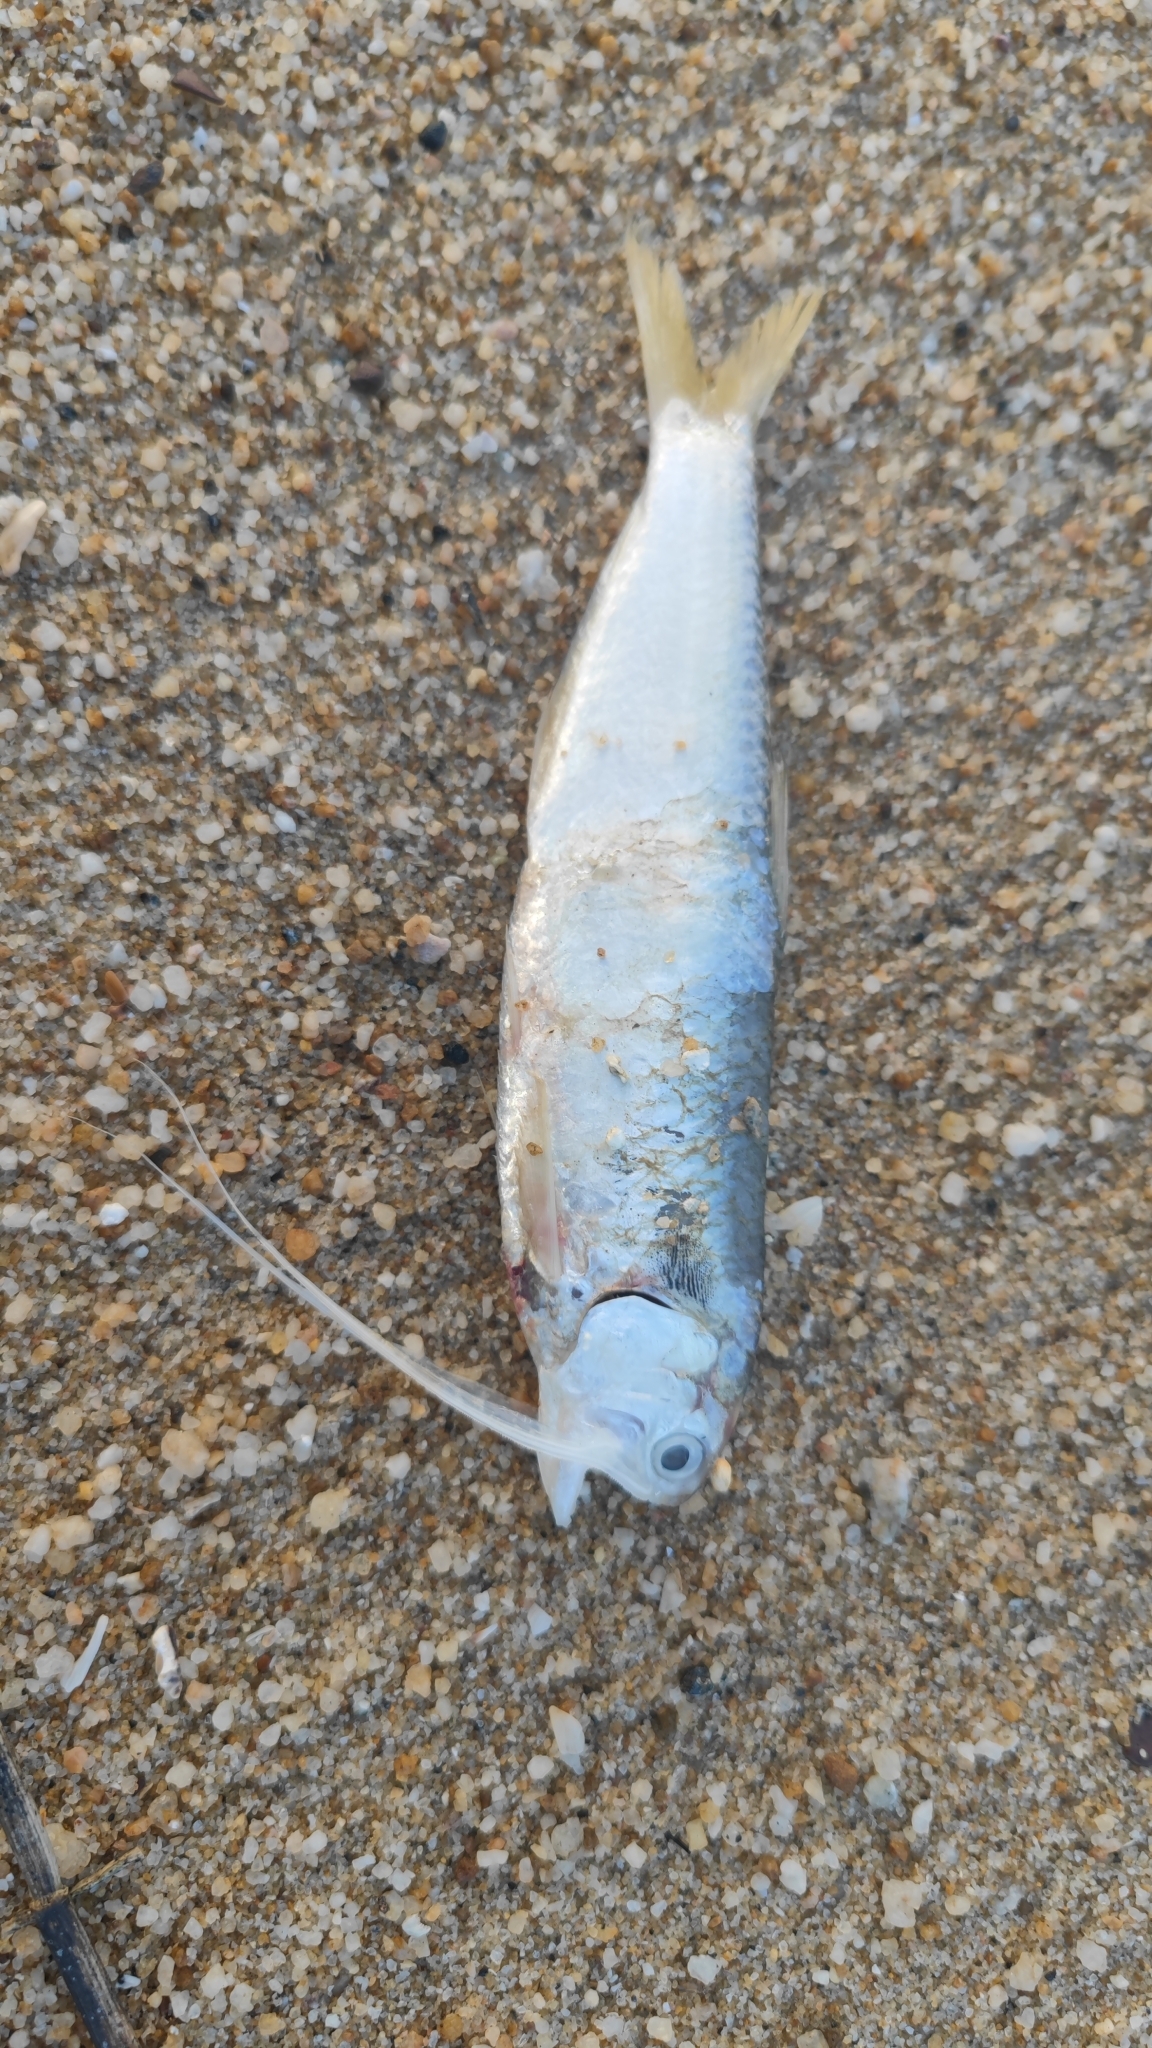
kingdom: Animalia
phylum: Chordata
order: Clupeiformes
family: Engraulidae
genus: Thryssa
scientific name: Thryssa setirostris
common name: Longjaw thryssa
